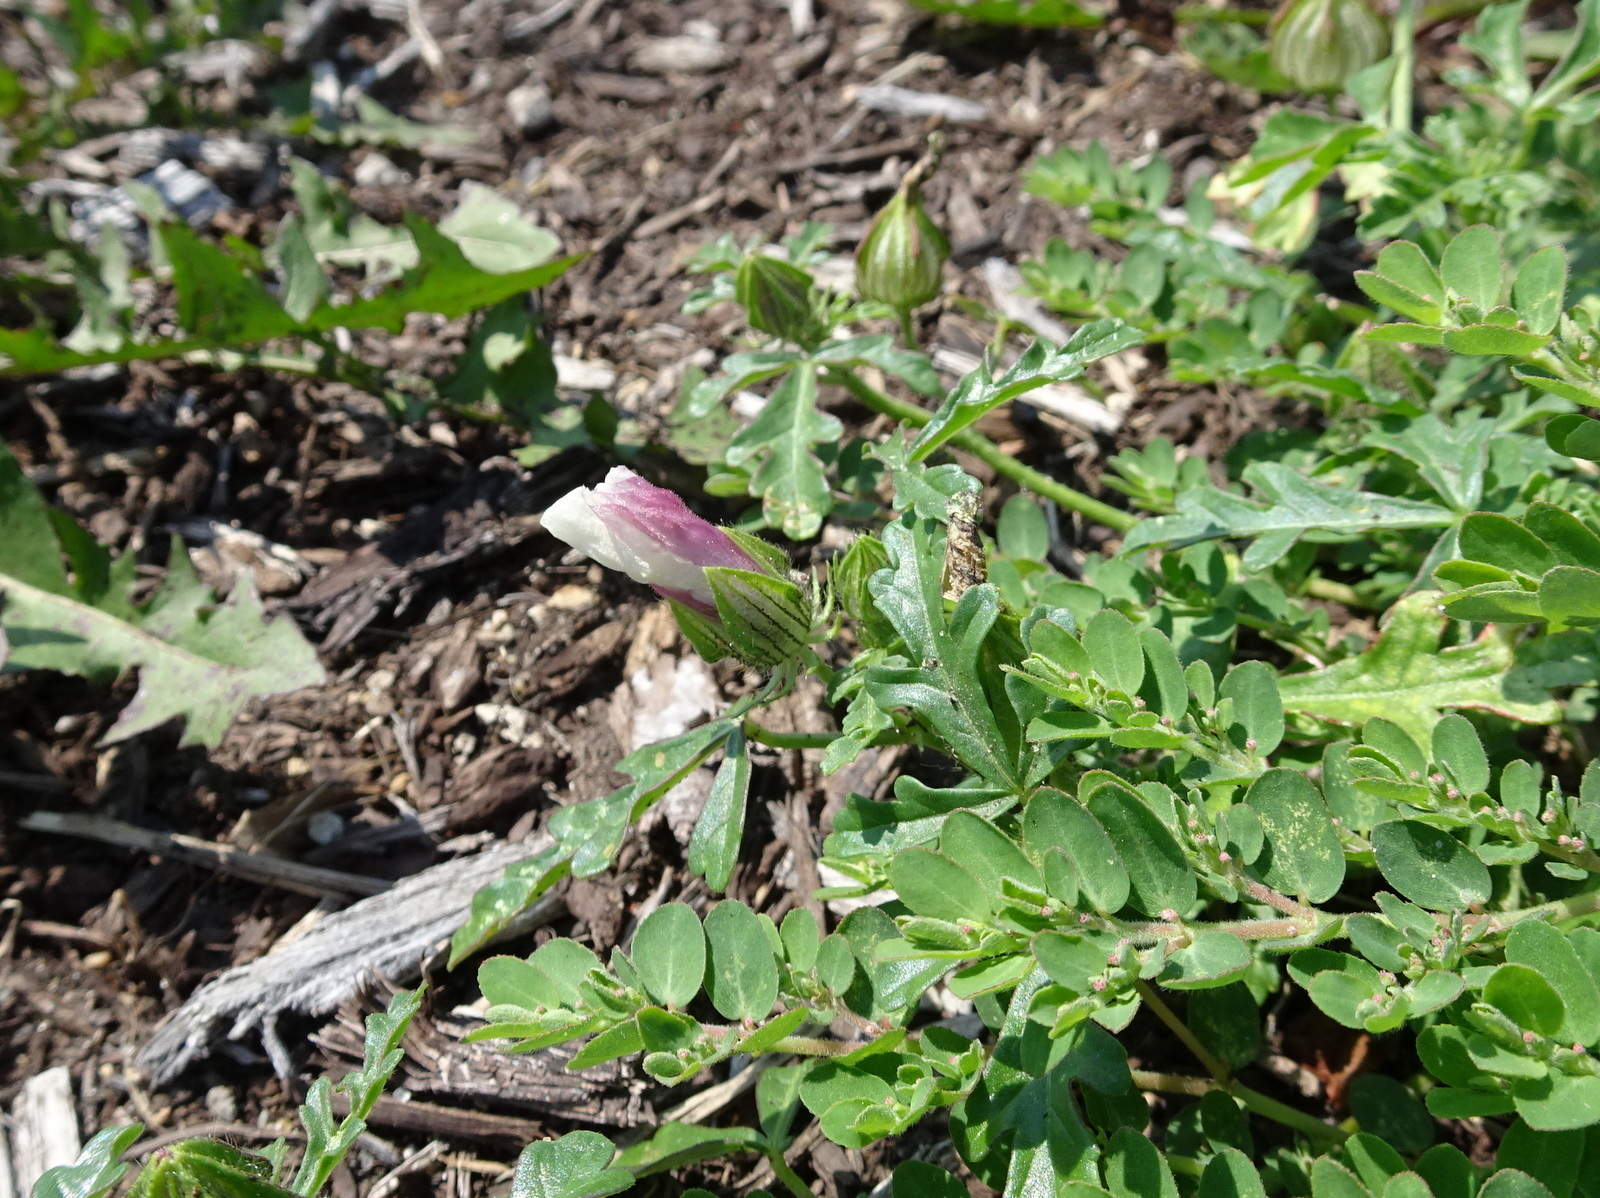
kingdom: Plantae
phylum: Tracheophyta
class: Magnoliopsida
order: Malvales
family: Malvaceae
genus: Hibiscus
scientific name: Hibiscus trionum
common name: Bladder ketmia
